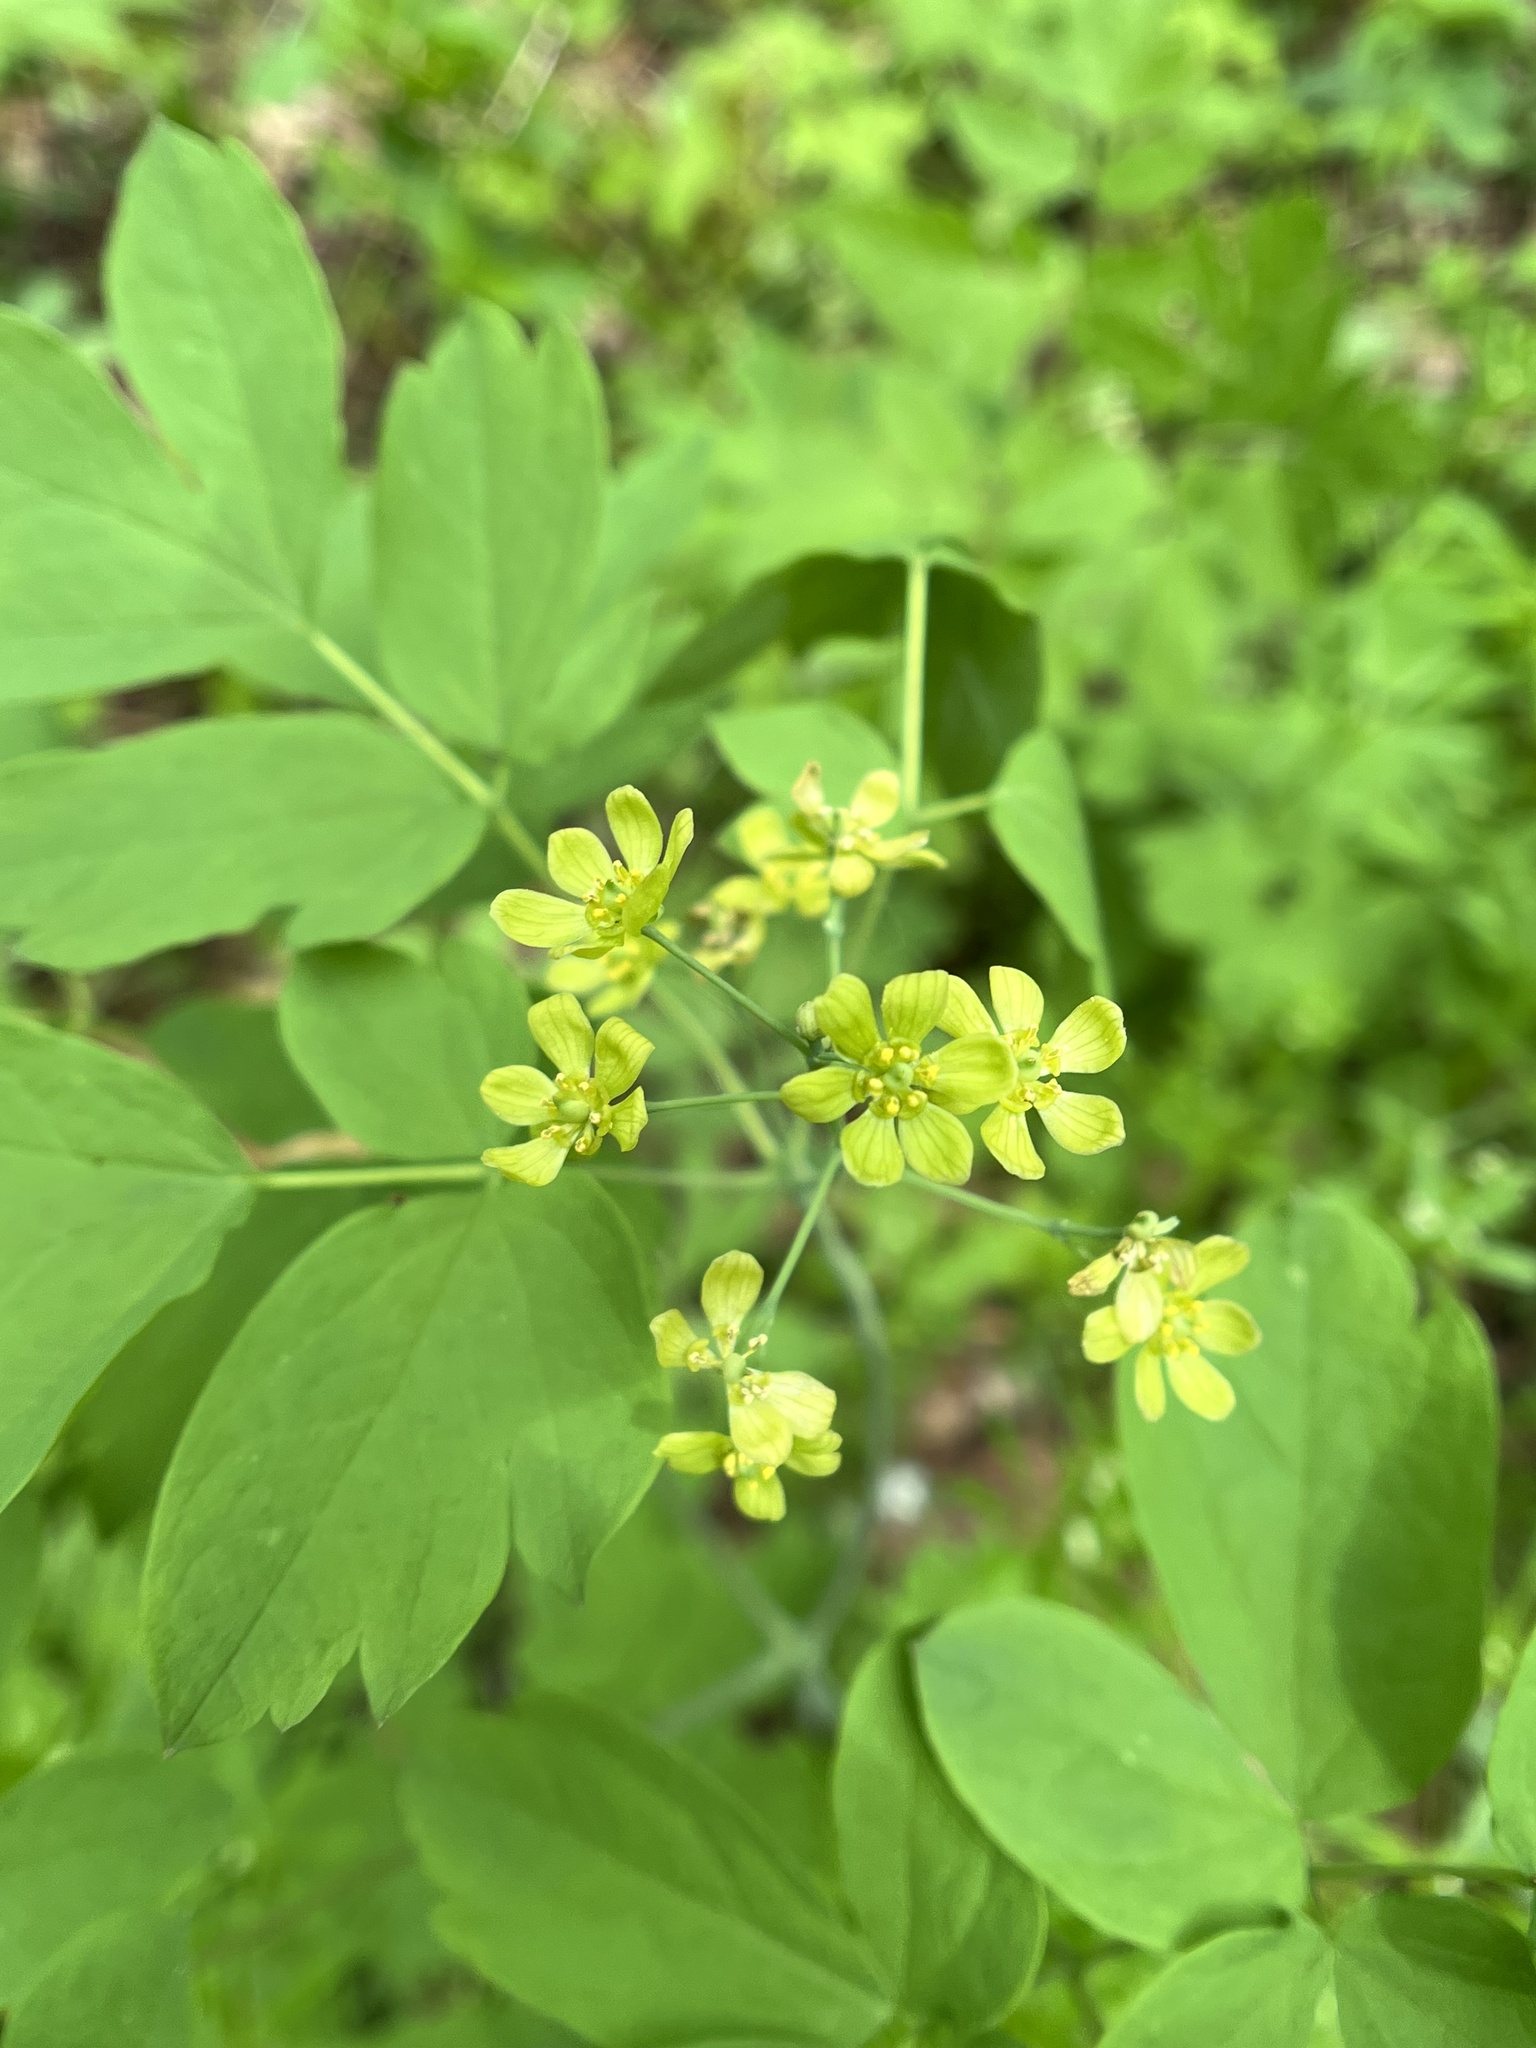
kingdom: Plantae
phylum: Tracheophyta
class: Magnoliopsida
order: Ranunculales
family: Berberidaceae
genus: Caulophyllum
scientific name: Caulophyllum thalictroides
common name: Blue cohosh
